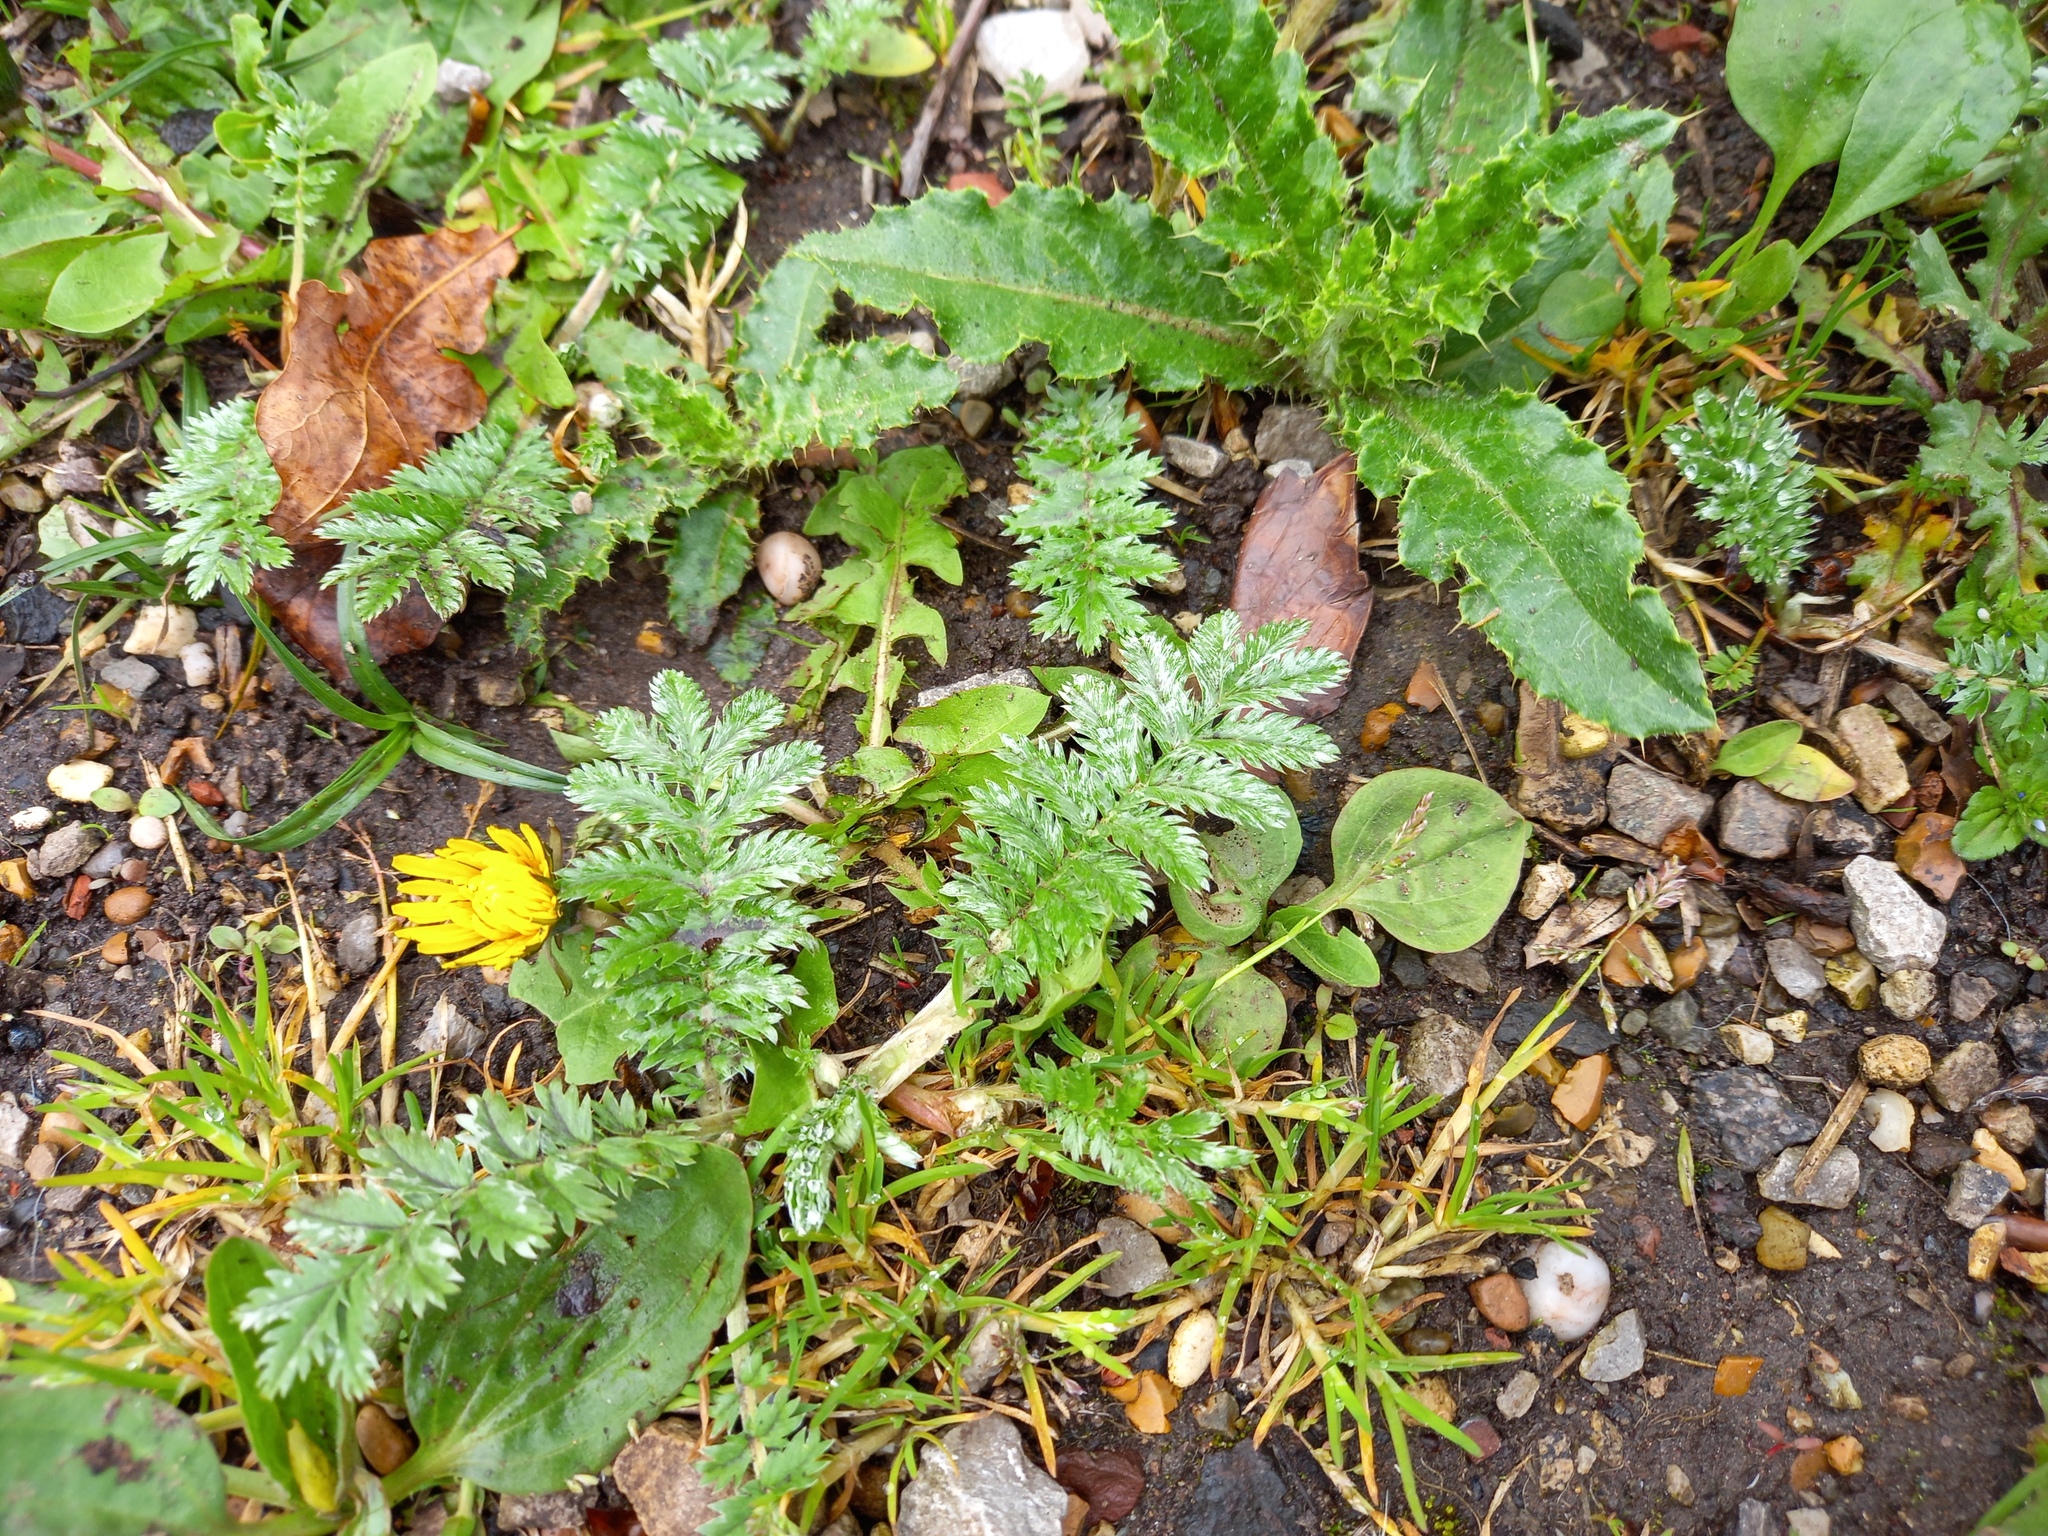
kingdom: Plantae
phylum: Tracheophyta
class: Magnoliopsida
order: Rosales
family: Rosaceae
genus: Argentina
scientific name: Argentina anserina
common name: Common silverweed
